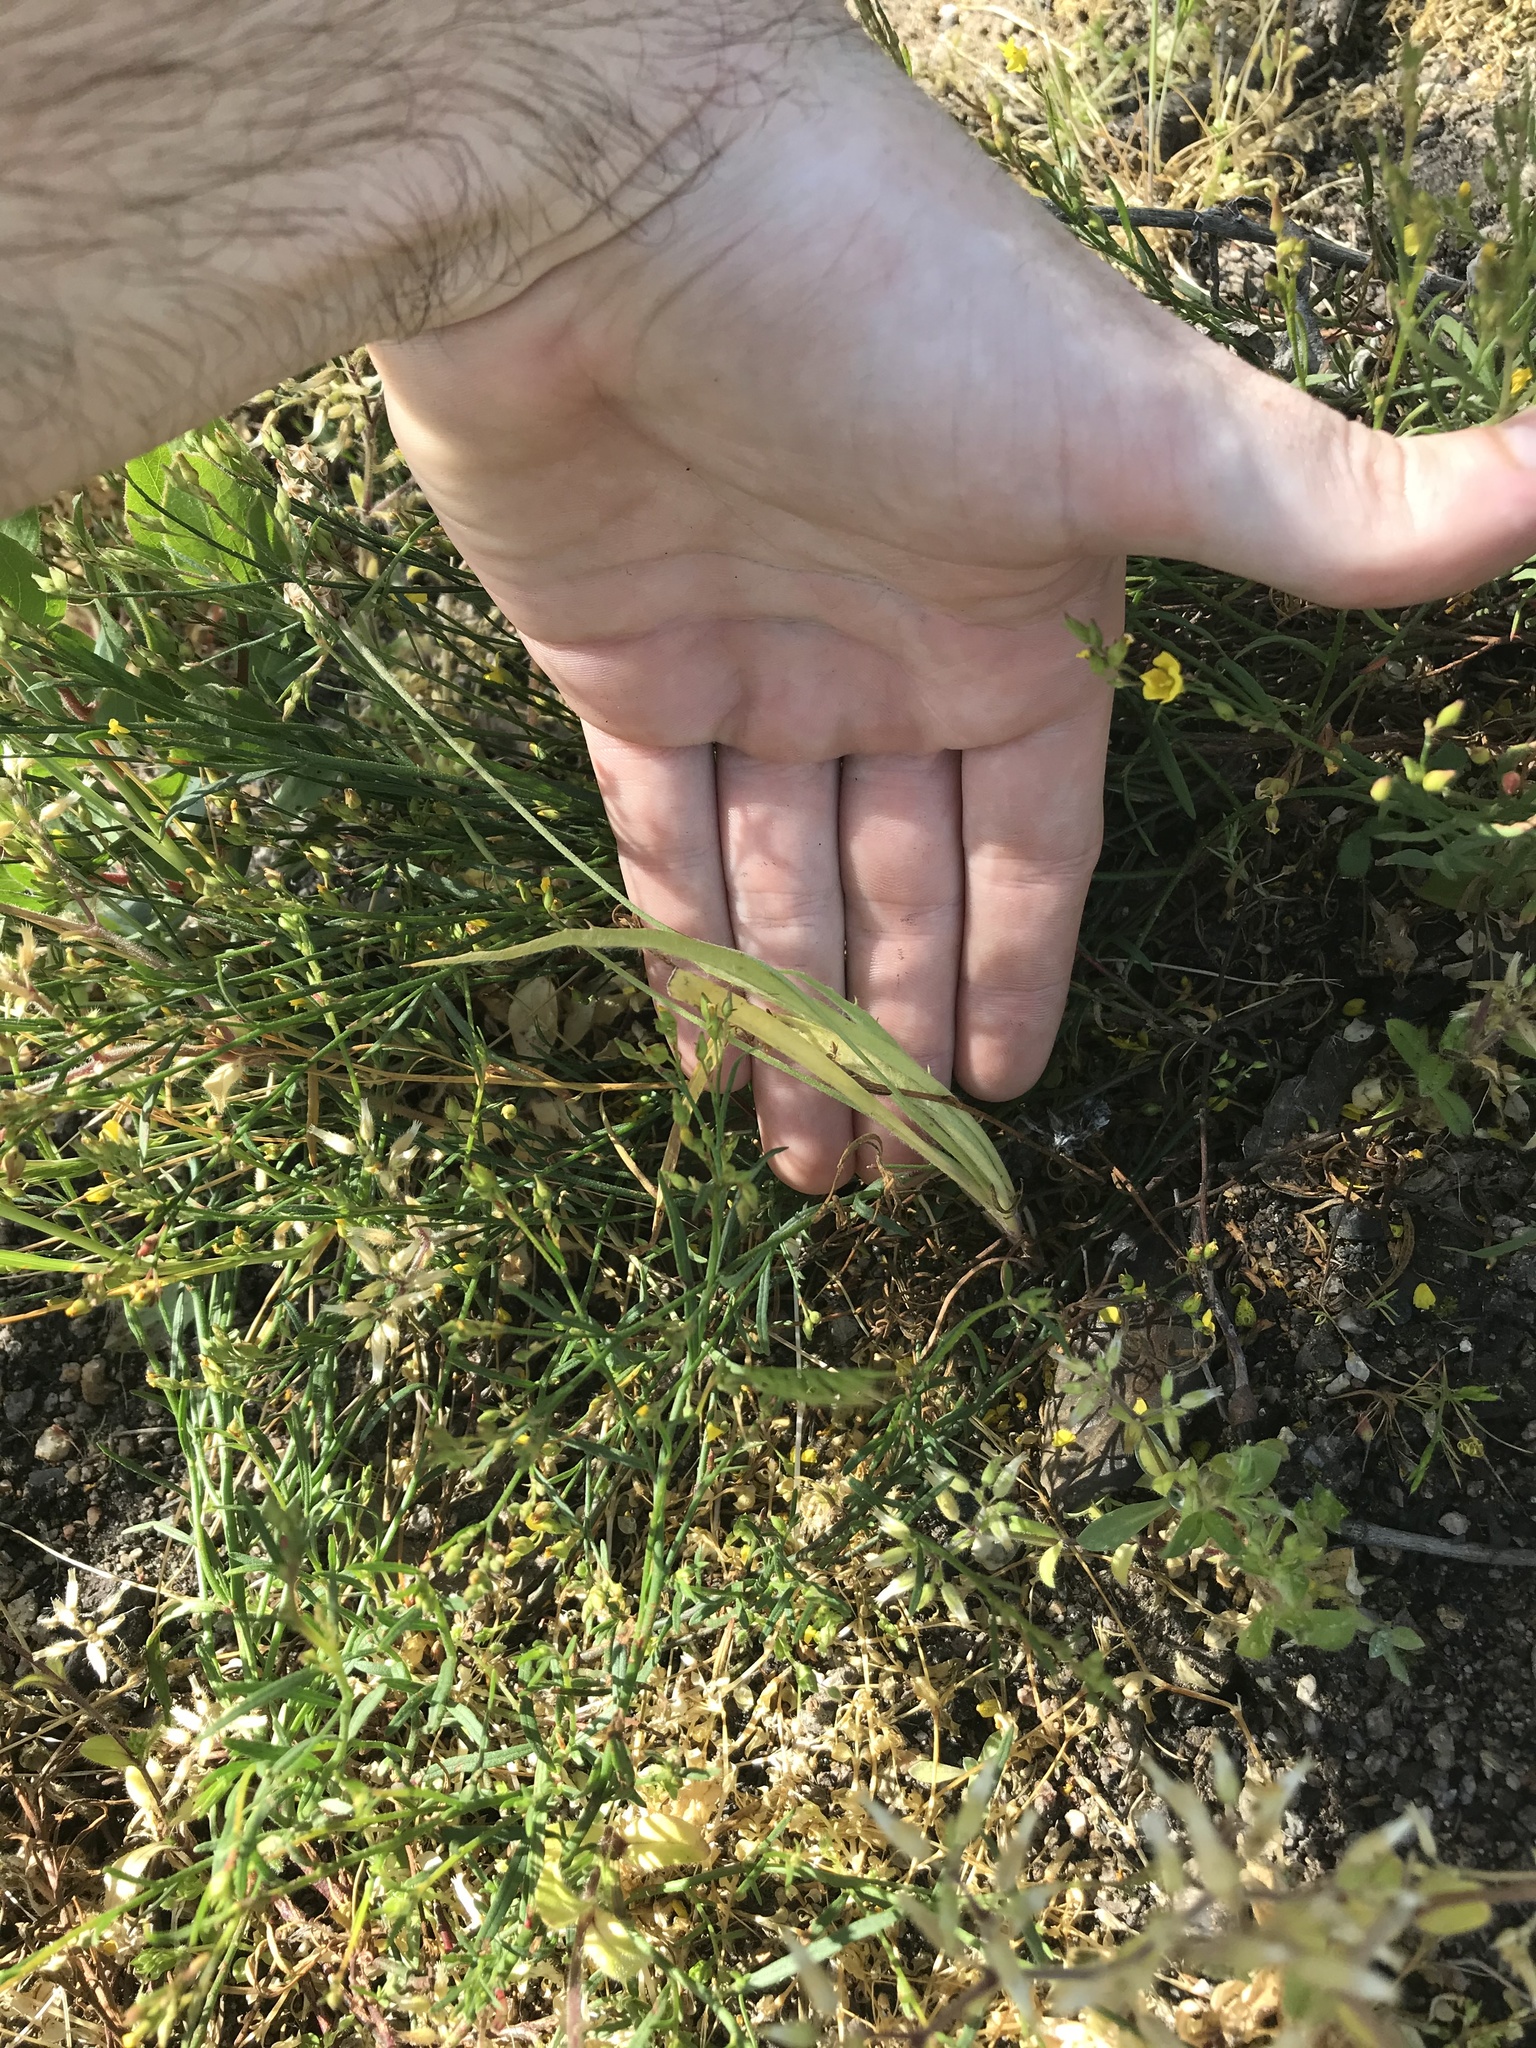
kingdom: Plantae
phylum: Tracheophyta
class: Magnoliopsida
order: Lamiales
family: Plantaginaceae
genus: Plantago
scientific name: Plantago erecta
